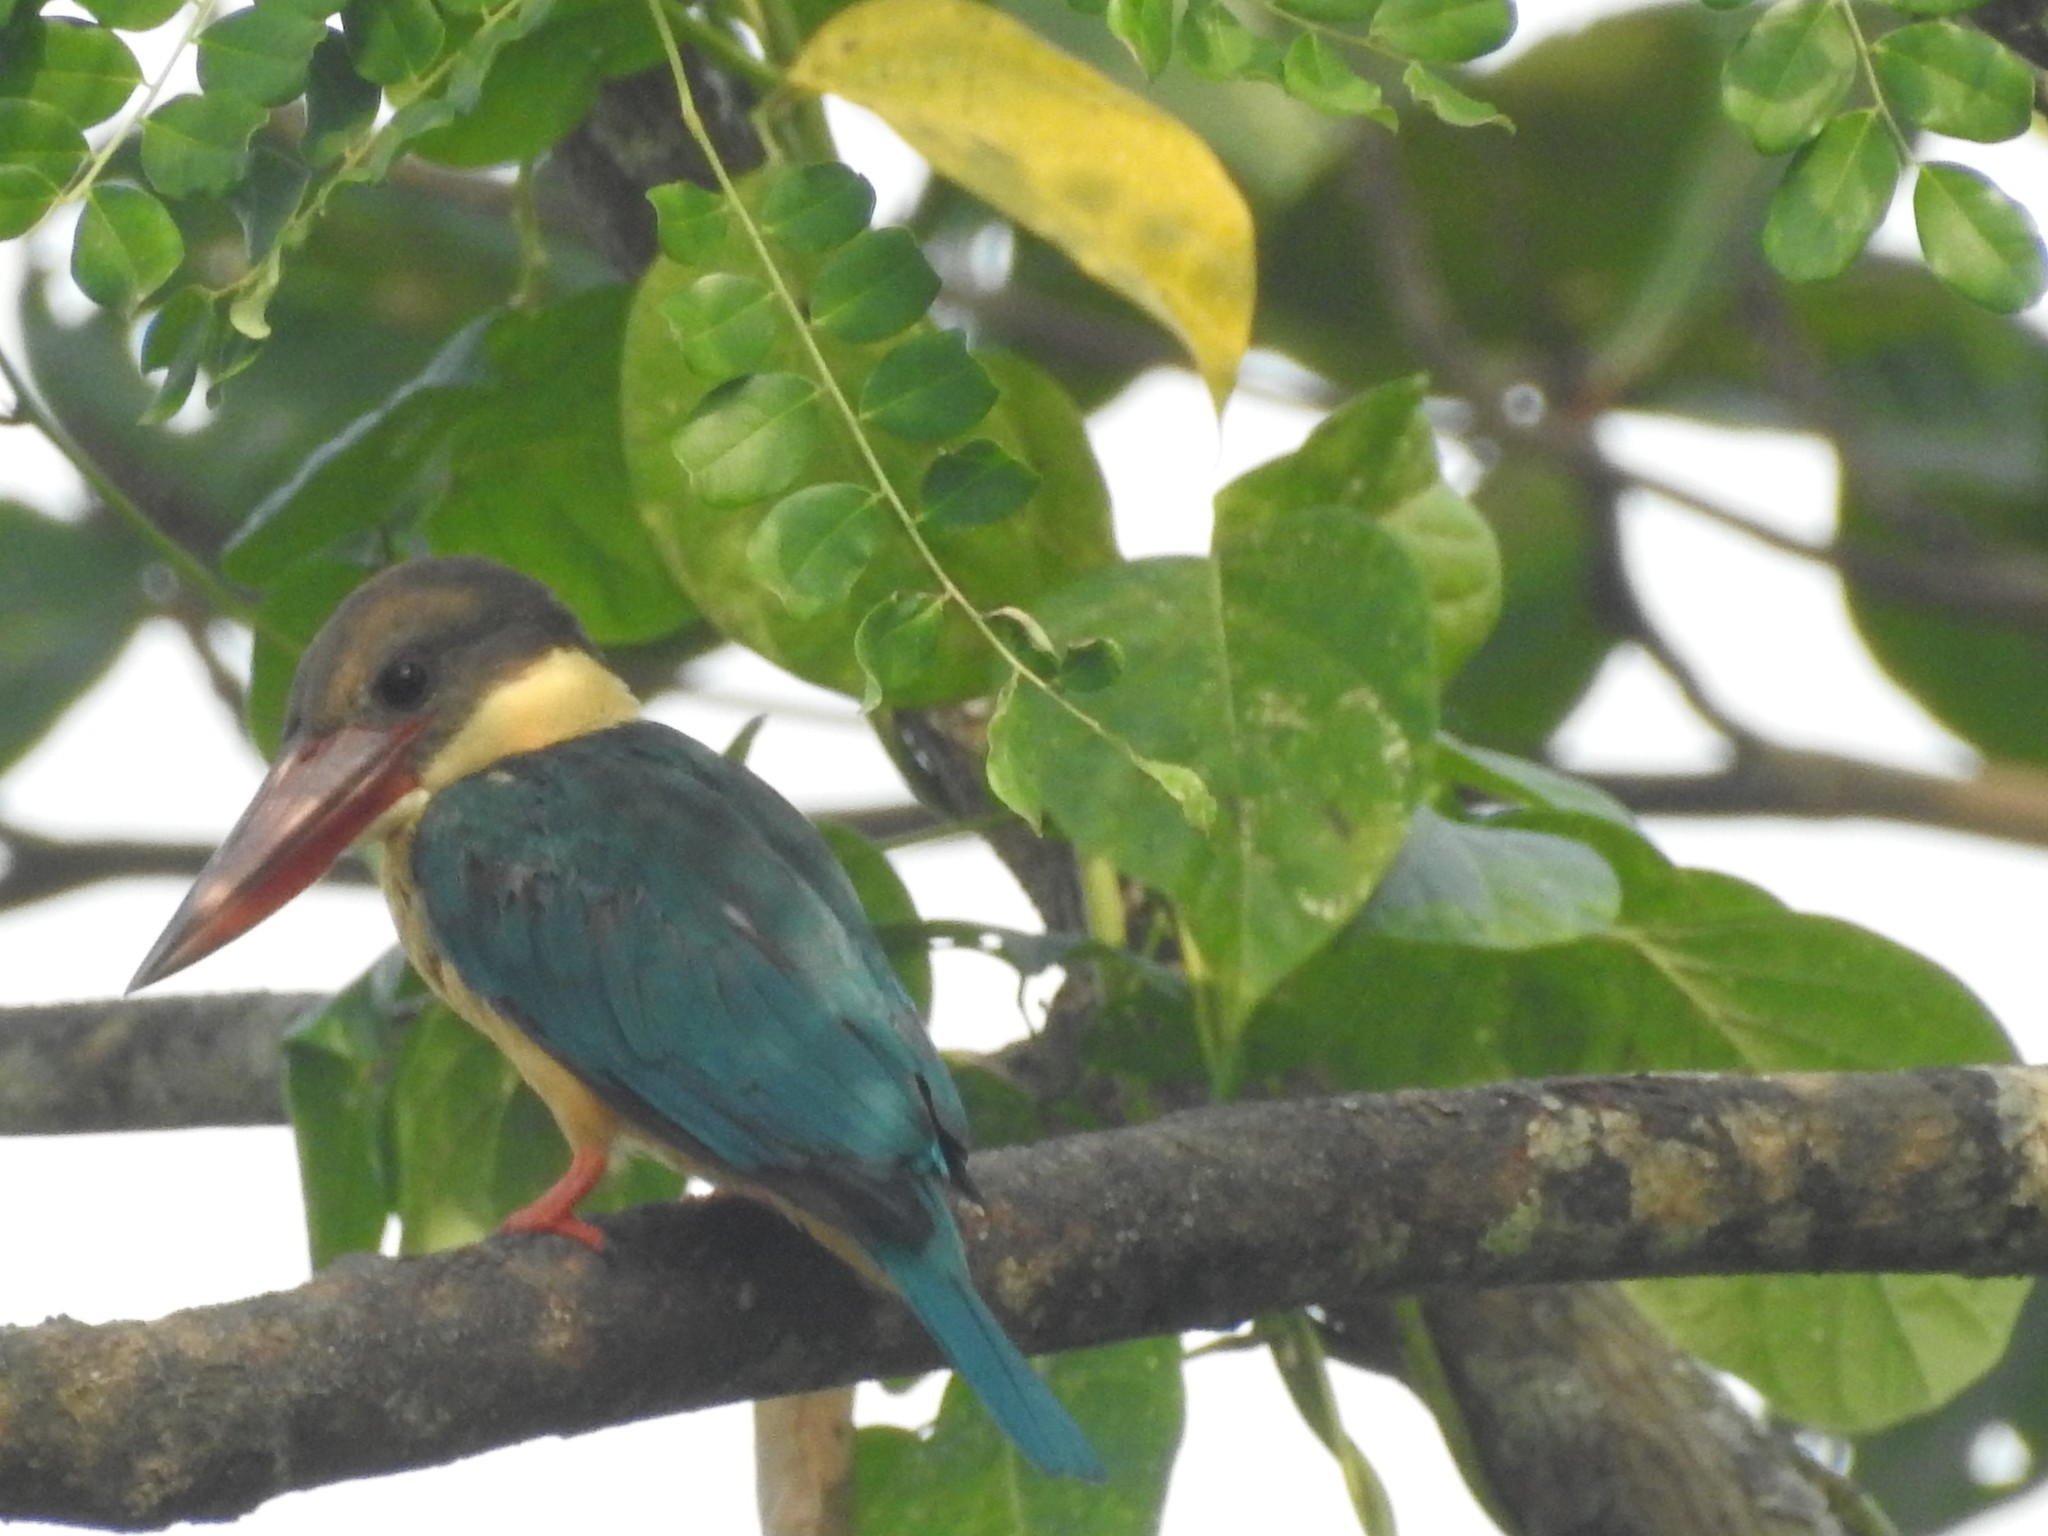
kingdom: Animalia
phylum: Chordata
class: Aves
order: Coraciiformes
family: Alcedinidae
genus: Pelargopsis
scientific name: Pelargopsis capensis
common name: Stork-billed kingfisher
